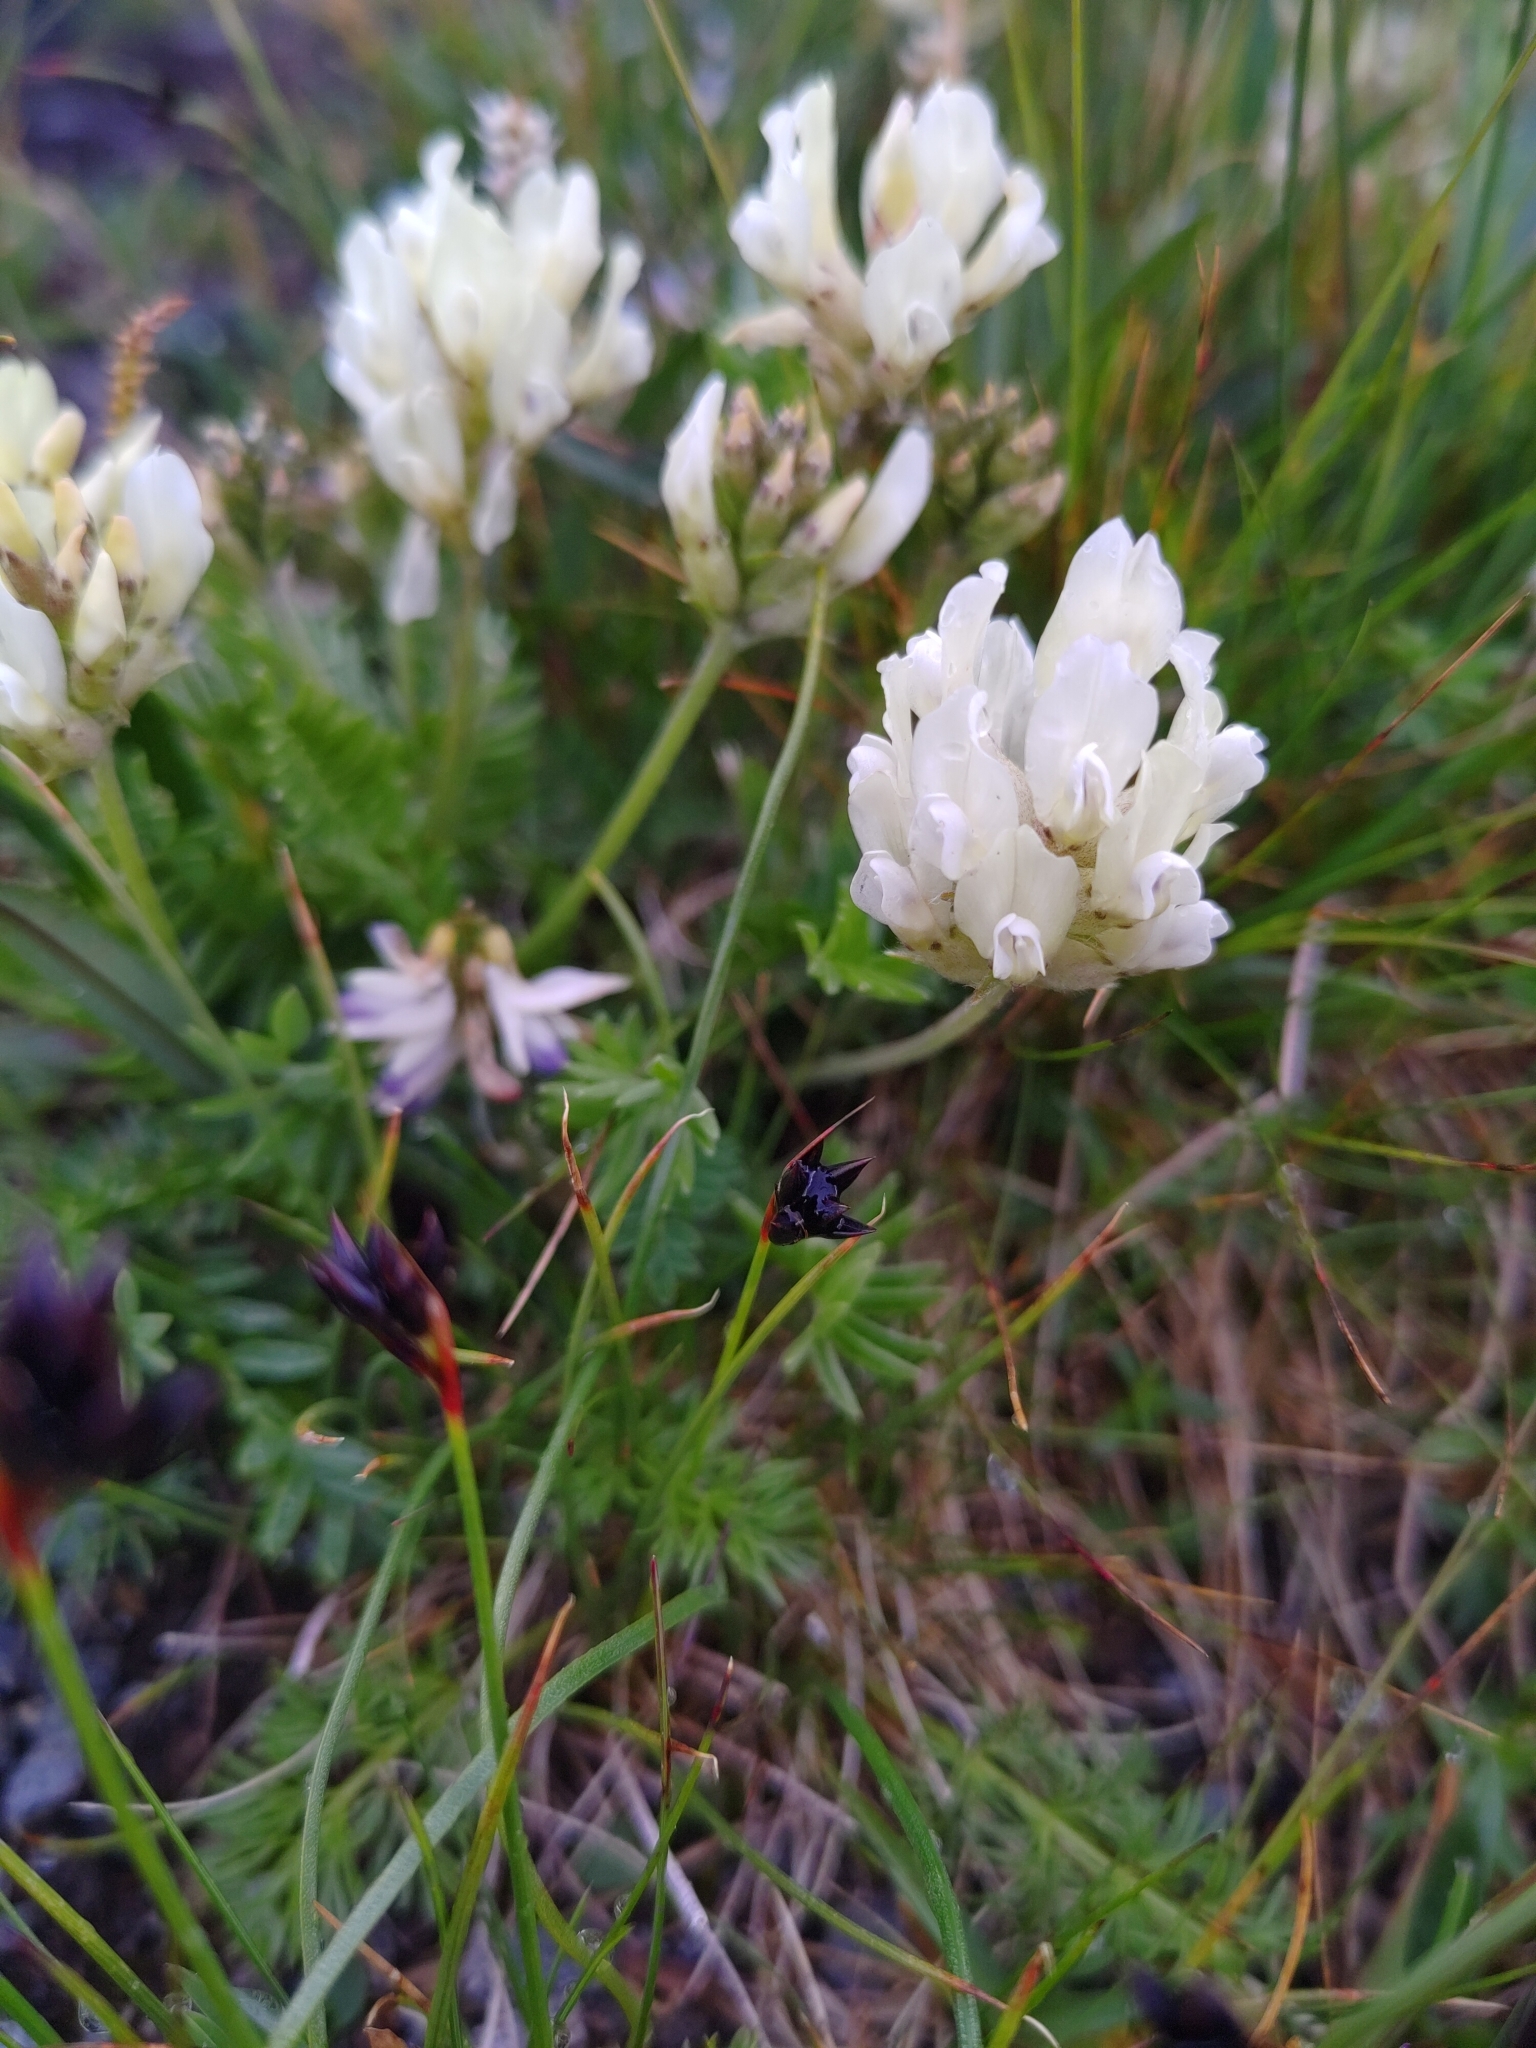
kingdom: Plantae
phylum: Tracheophyta
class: Magnoliopsida
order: Fabales
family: Fabaceae
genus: Oxytropis
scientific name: Oxytropis campestris
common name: Field locoweed
